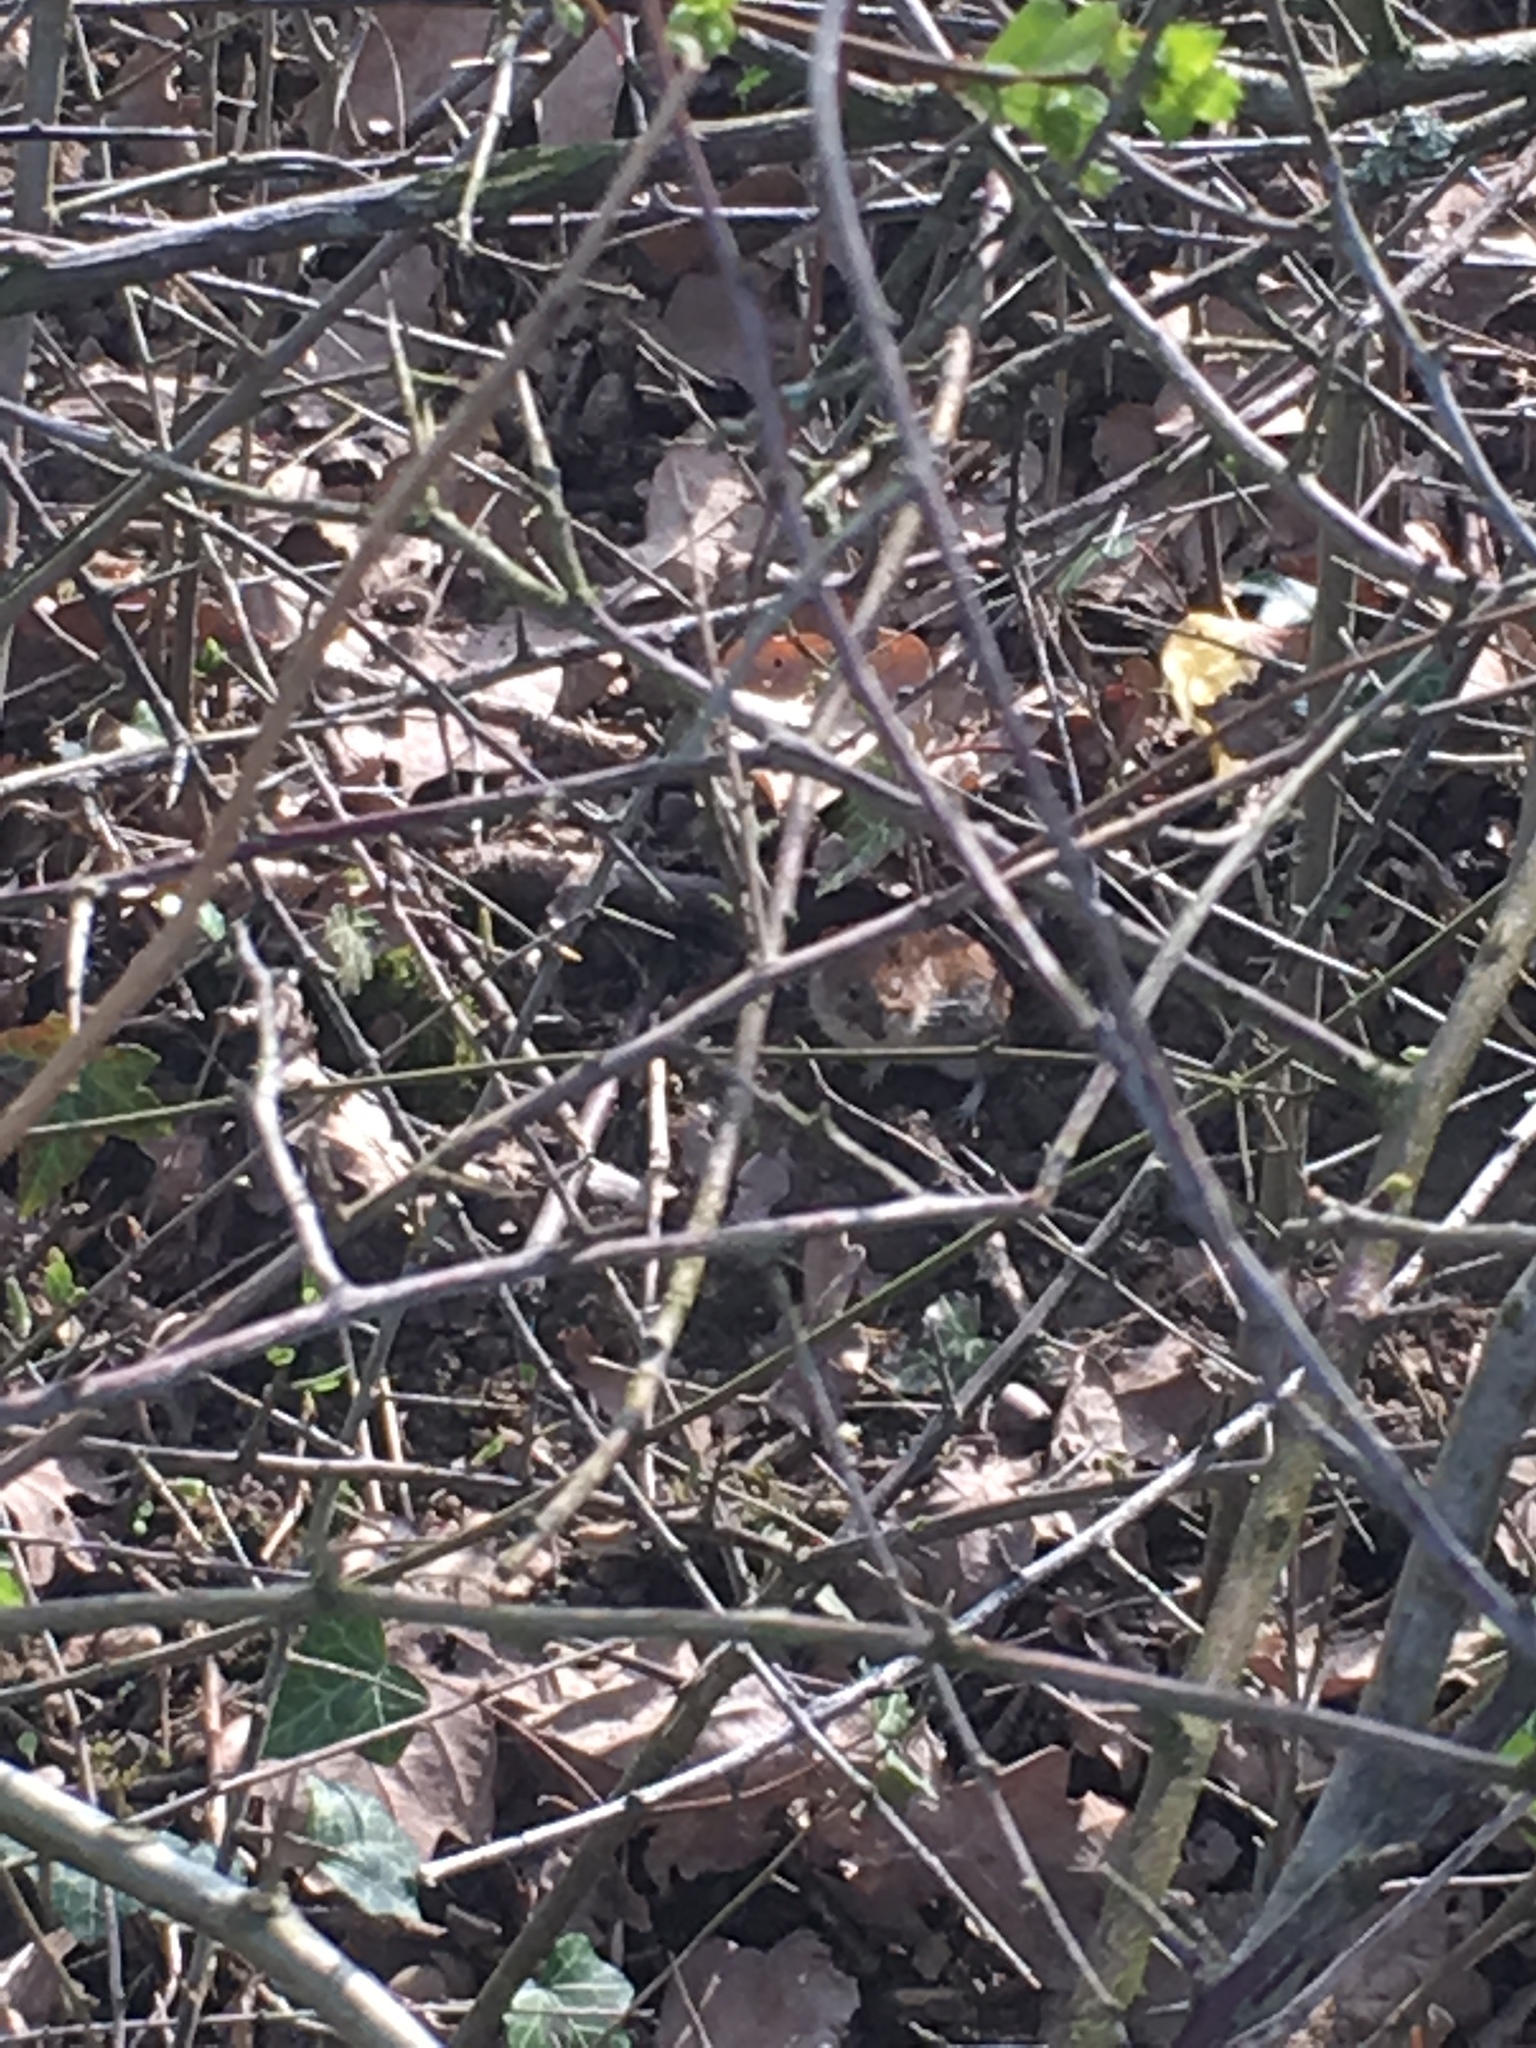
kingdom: Animalia
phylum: Chordata
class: Mammalia
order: Rodentia
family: Cricetidae
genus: Myodes
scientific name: Myodes glareolus
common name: Bank vole
